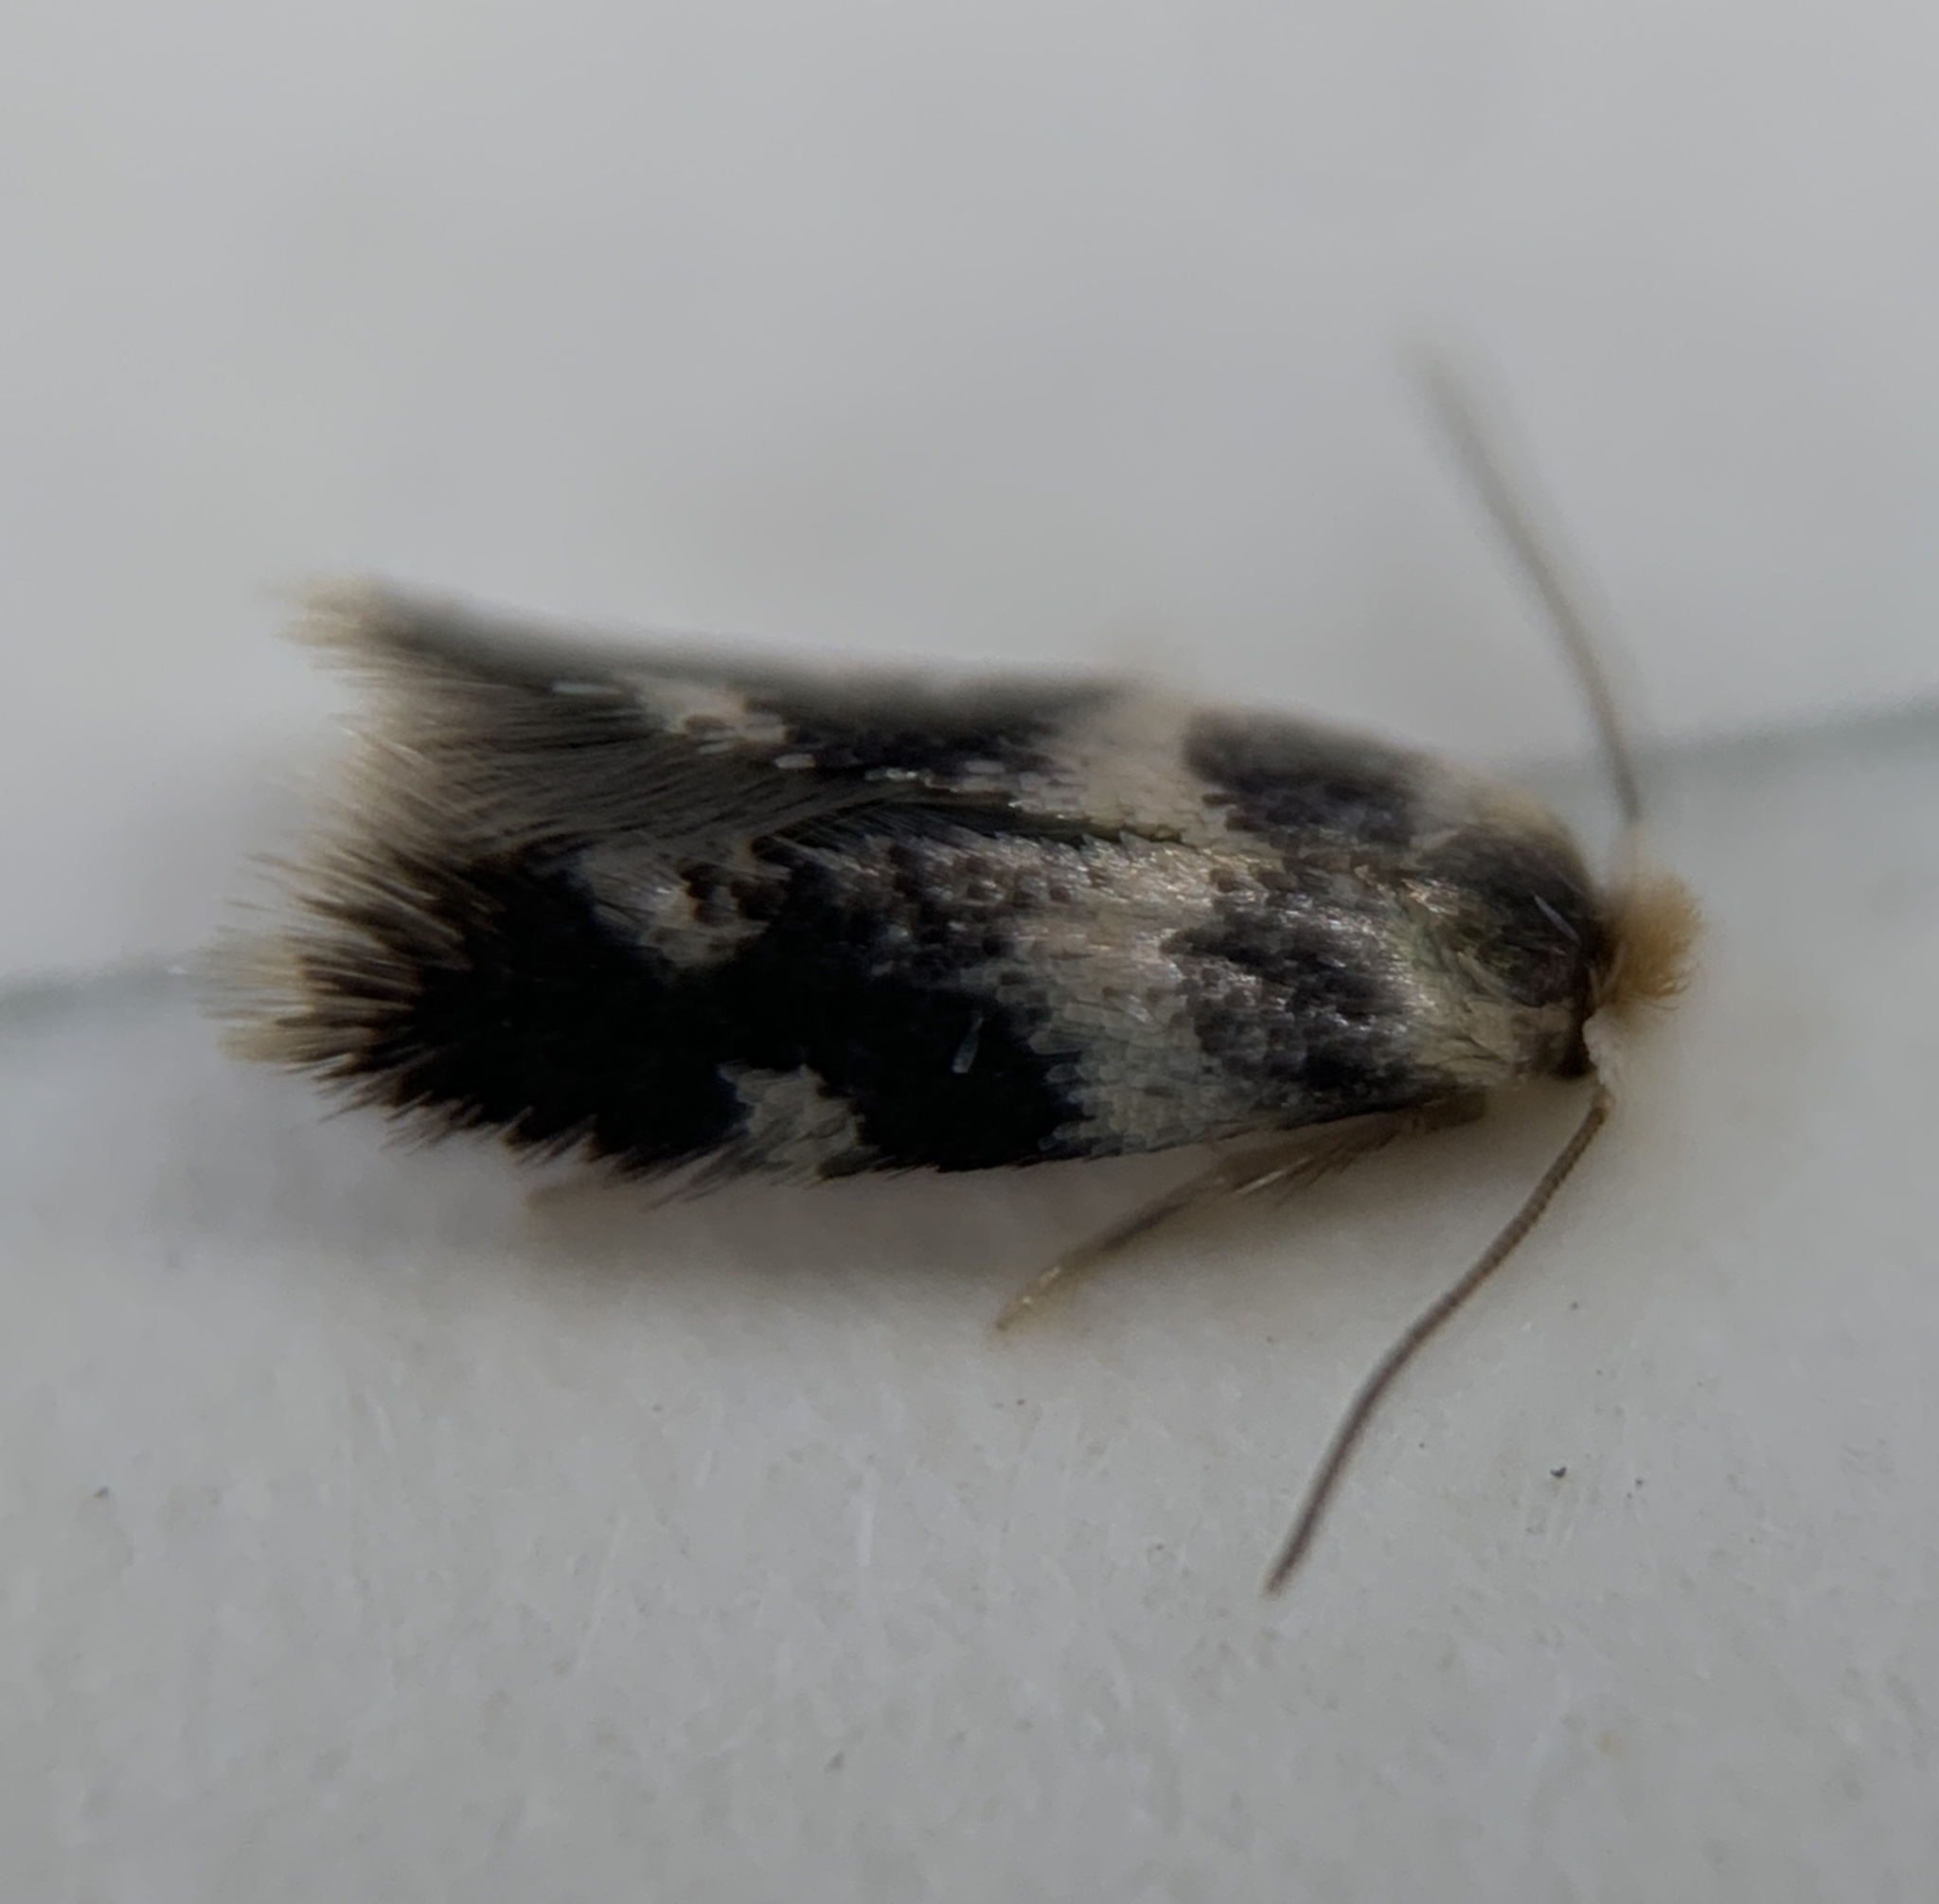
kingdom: Animalia
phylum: Arthropoda
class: Insecta
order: Lepidoptera
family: Nepticulidae
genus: Etainia
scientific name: Etainia sericopeza
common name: Leafminer
